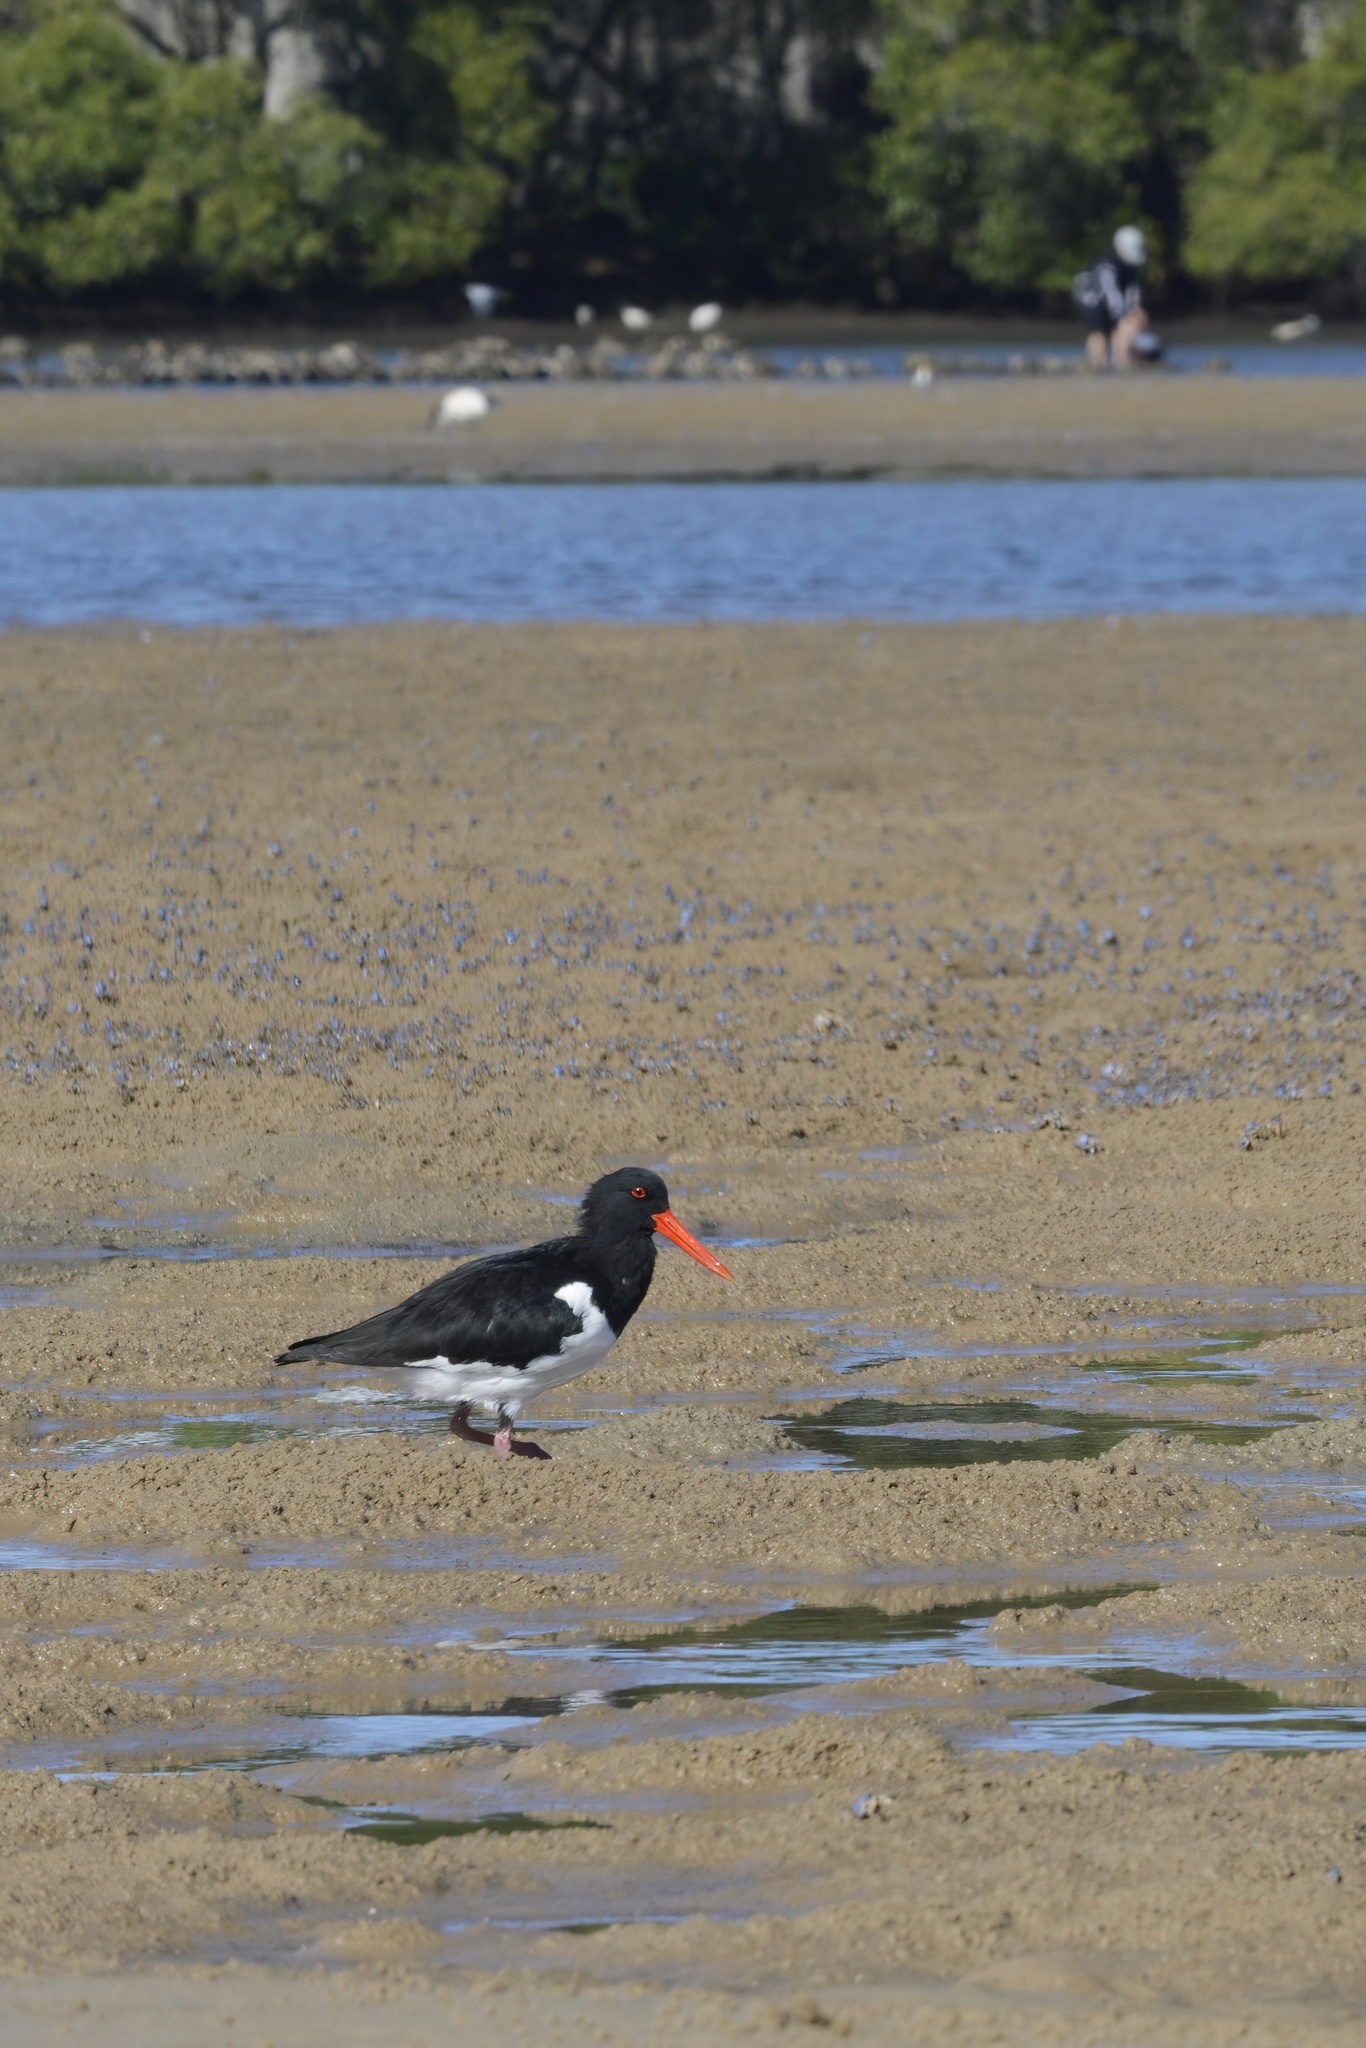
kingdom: Animalia
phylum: Chordata
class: Aves
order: Charadriiformes
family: Haematopodidae
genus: Haematopus
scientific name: Haematopus longirostris
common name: Pied oystercatcher
